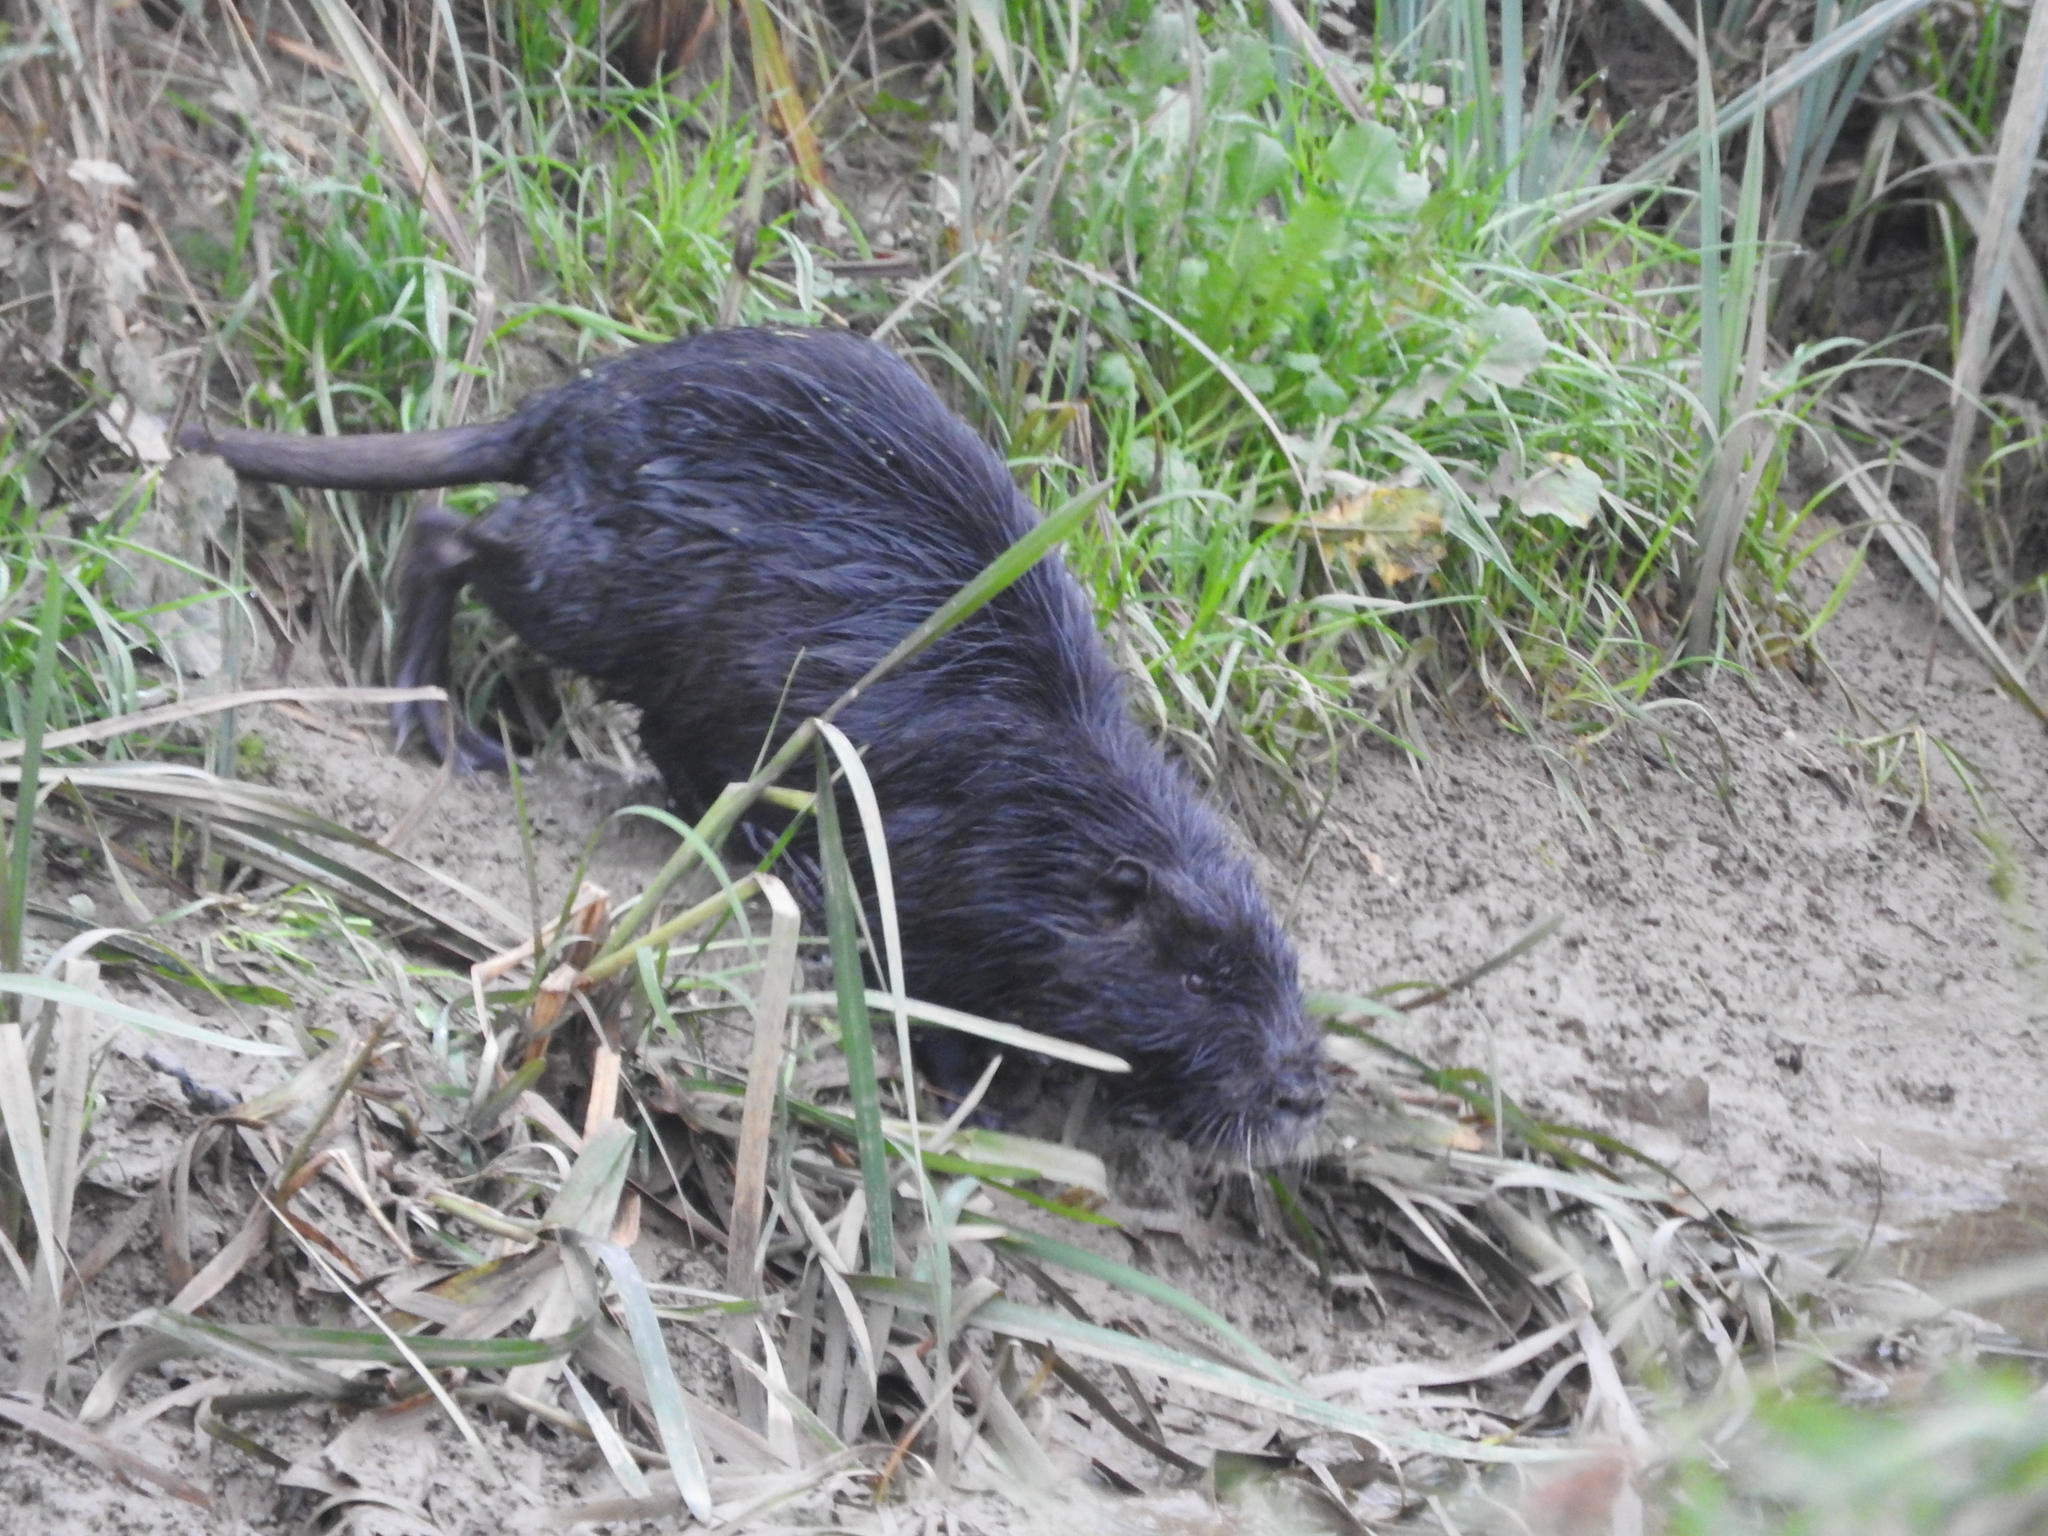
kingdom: Animalia
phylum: Chordata
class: Mammalia
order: Rodentia
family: Myocastoridae
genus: Myocastor
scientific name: Myocastor coypus
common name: Coypu
